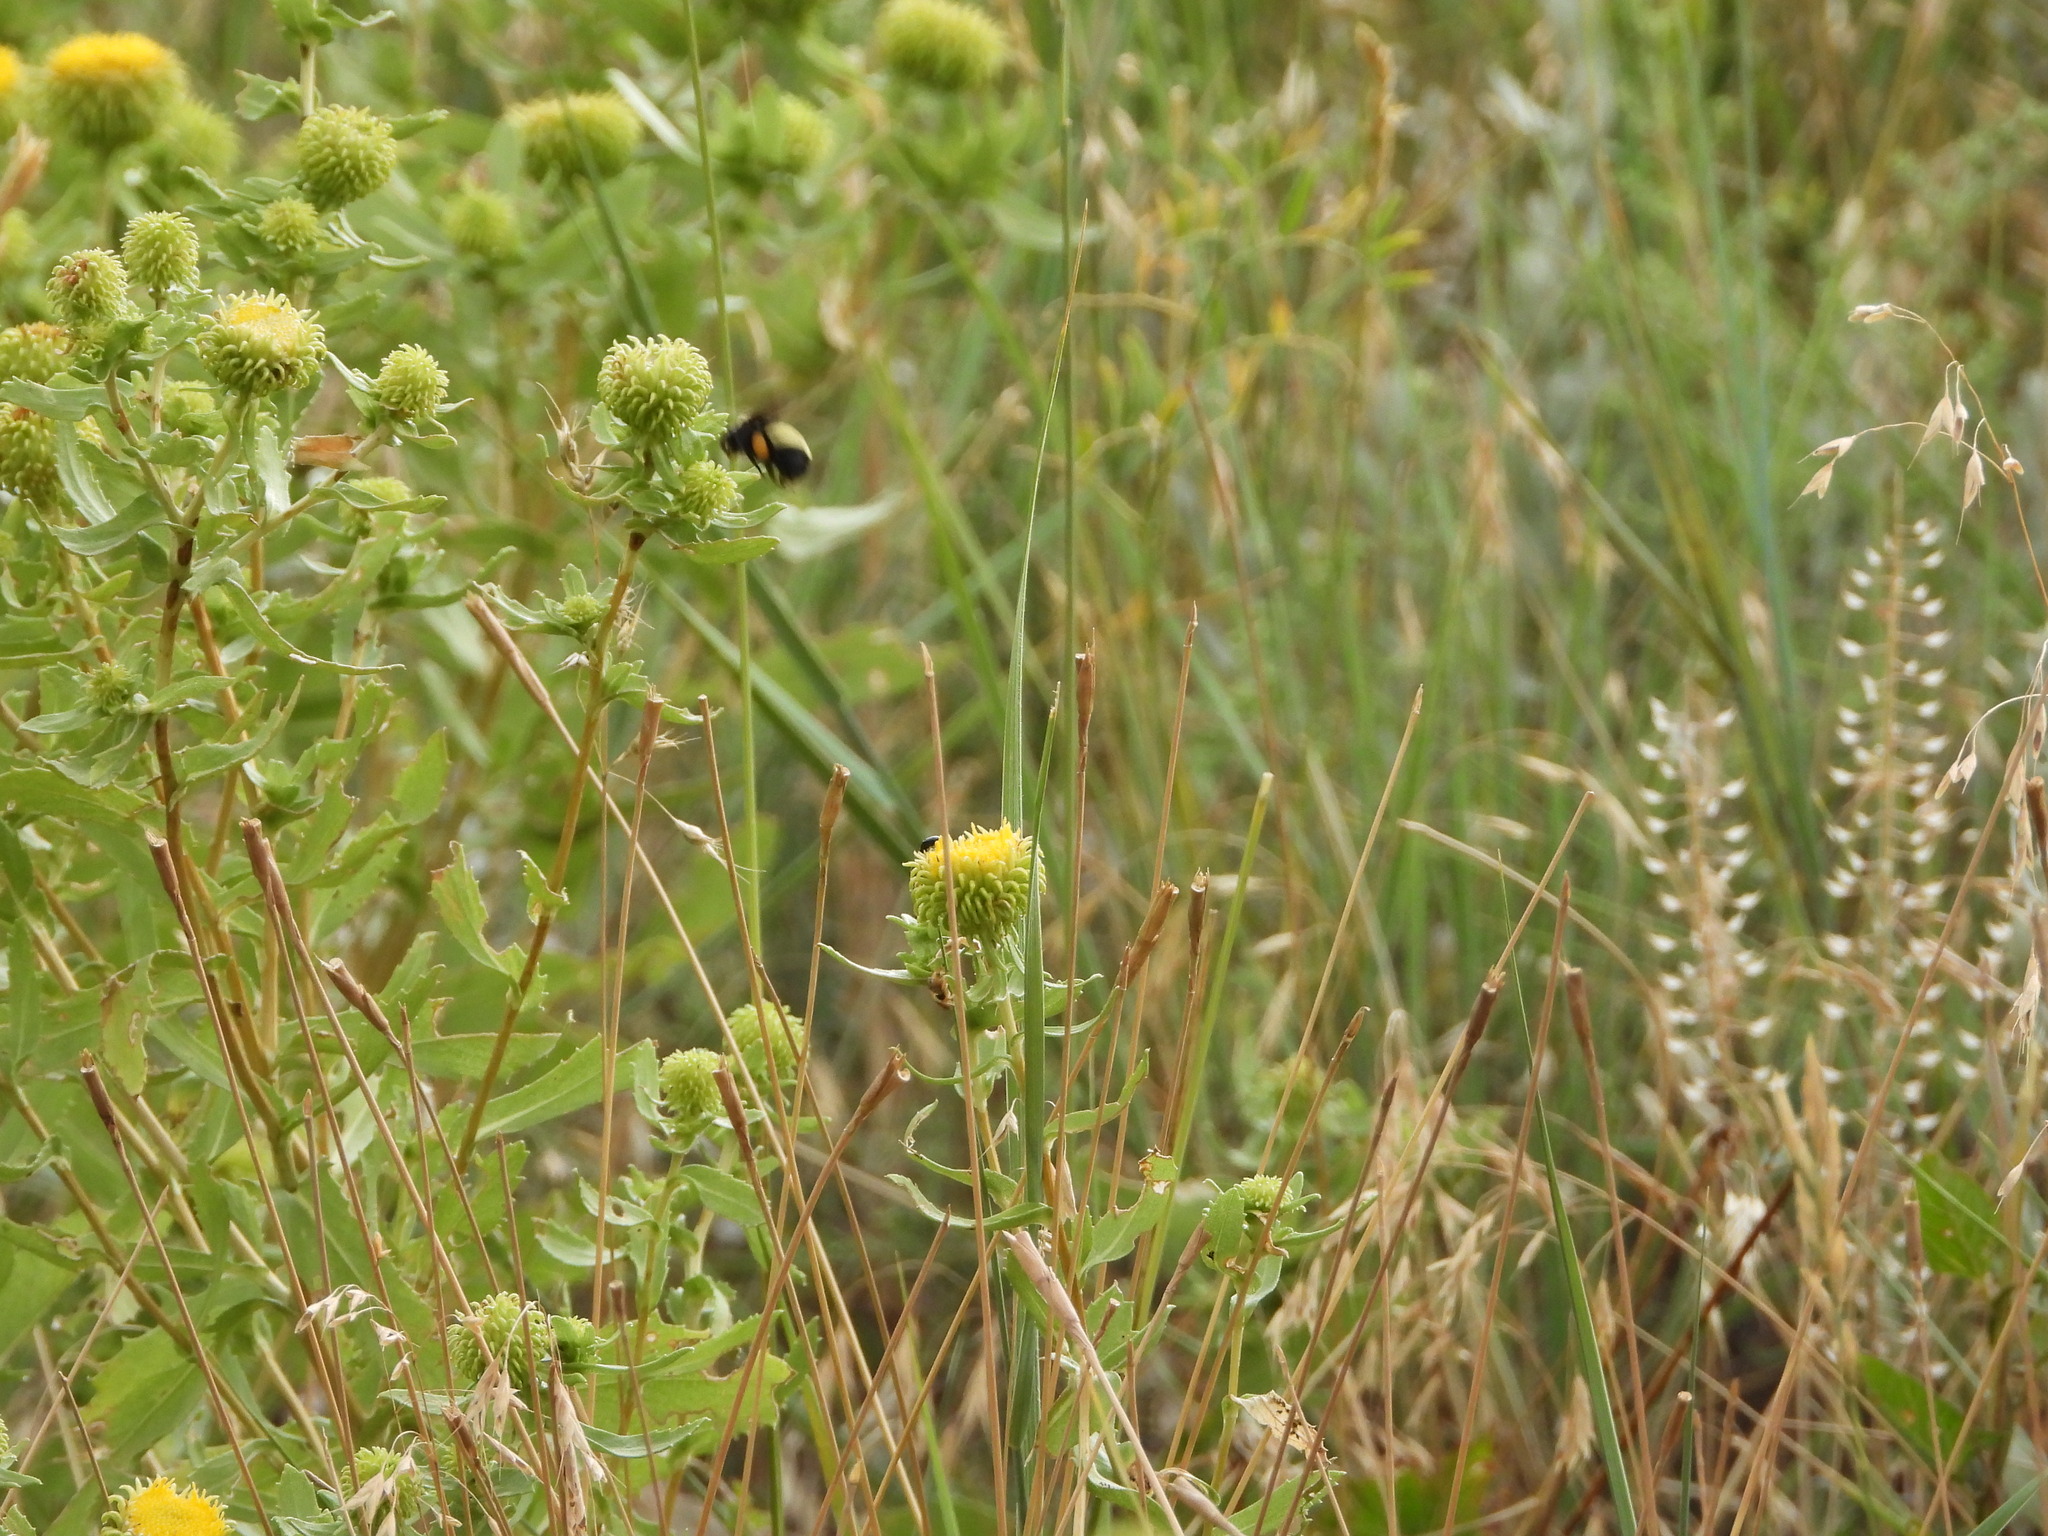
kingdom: Animalia
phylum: Arthropoda
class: Insecta
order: Hymenoptera
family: Apidae
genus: Bombus
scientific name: Bombus pensylvanicus
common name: Bumble bee
